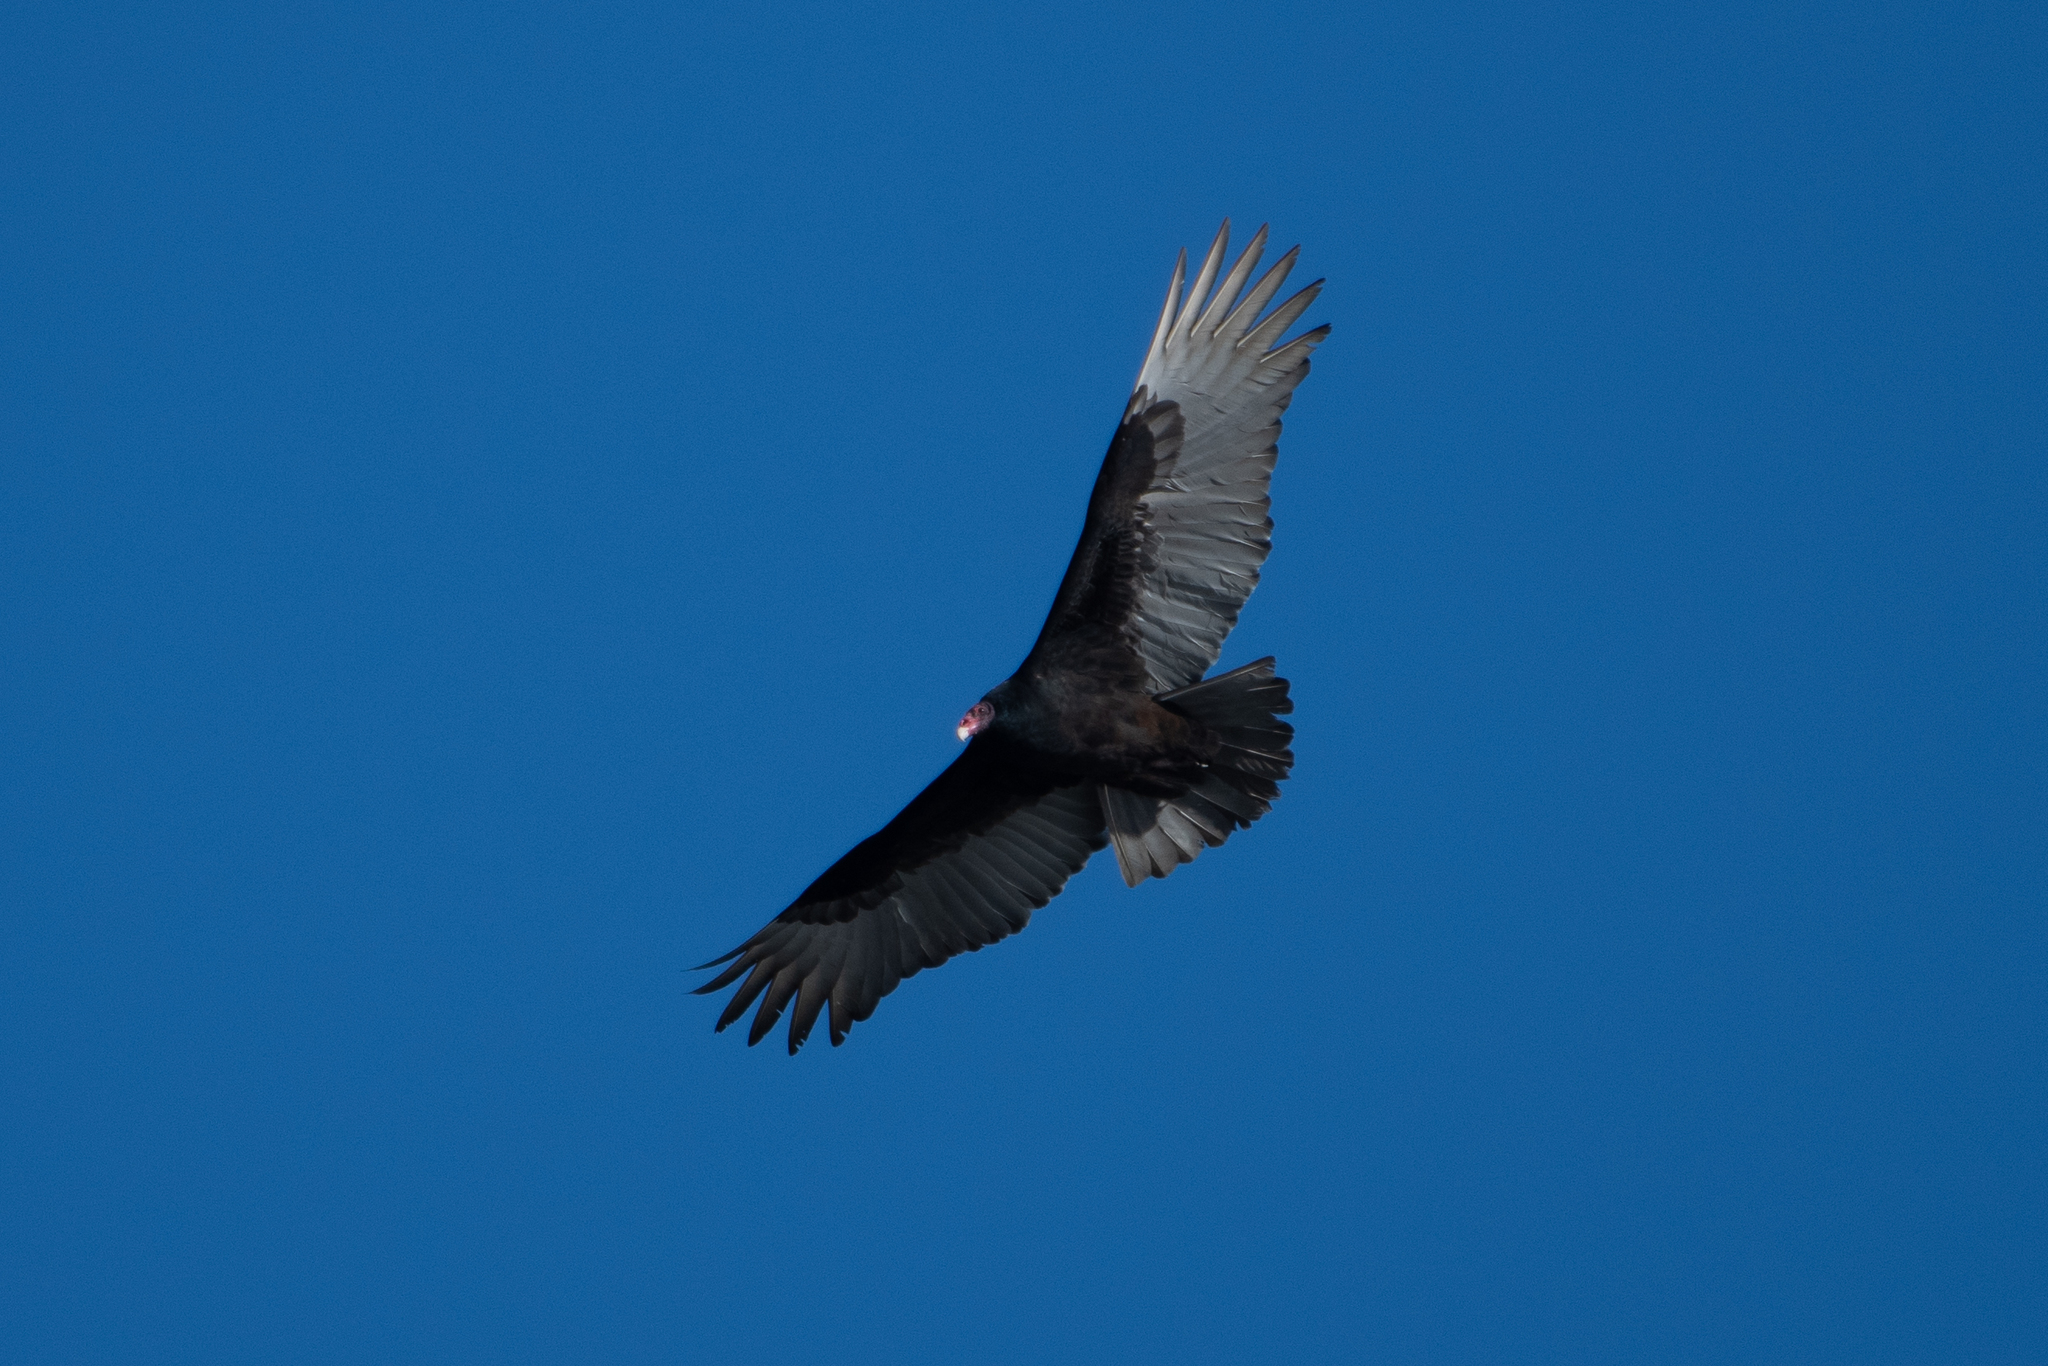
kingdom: Animalia
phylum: Chordata
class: Aves
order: Accipitriformes
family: Cathartidae
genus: Cathartes
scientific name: Cathartes aura
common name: Turkey vulture
